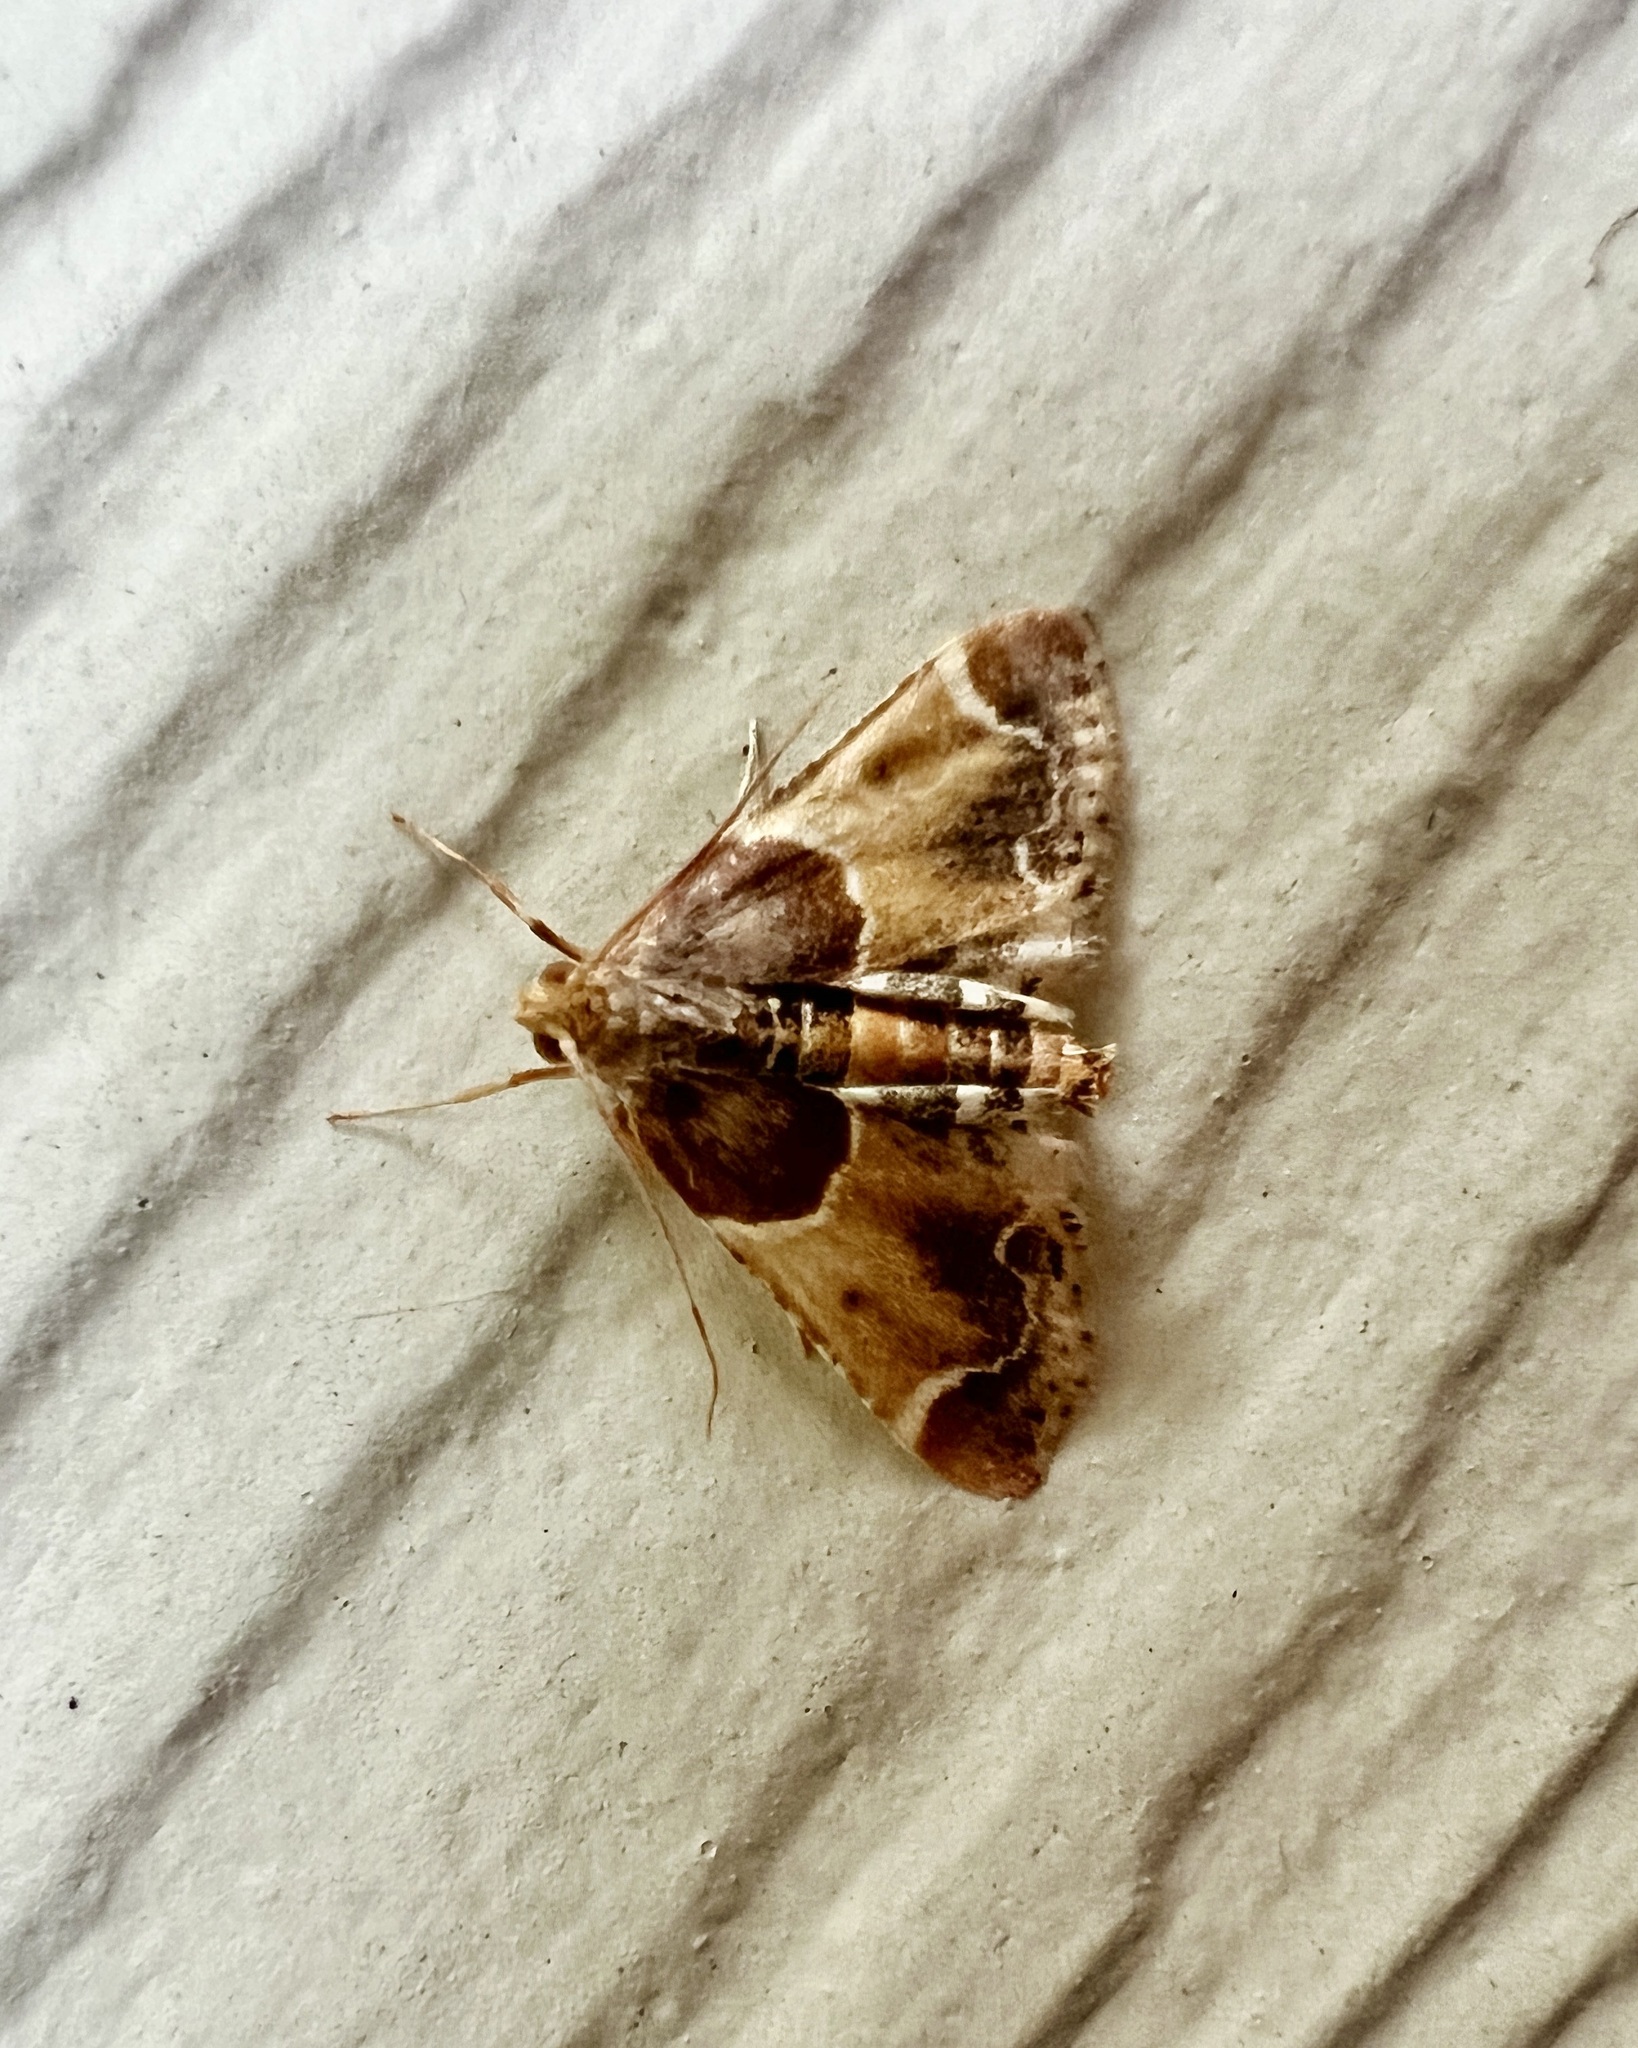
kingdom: Animalia
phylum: Arthropoda
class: Insecta
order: Lepidoptera
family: Pyralidae
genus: Pyralis
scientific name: Pyralis farinalis
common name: Meal moth
